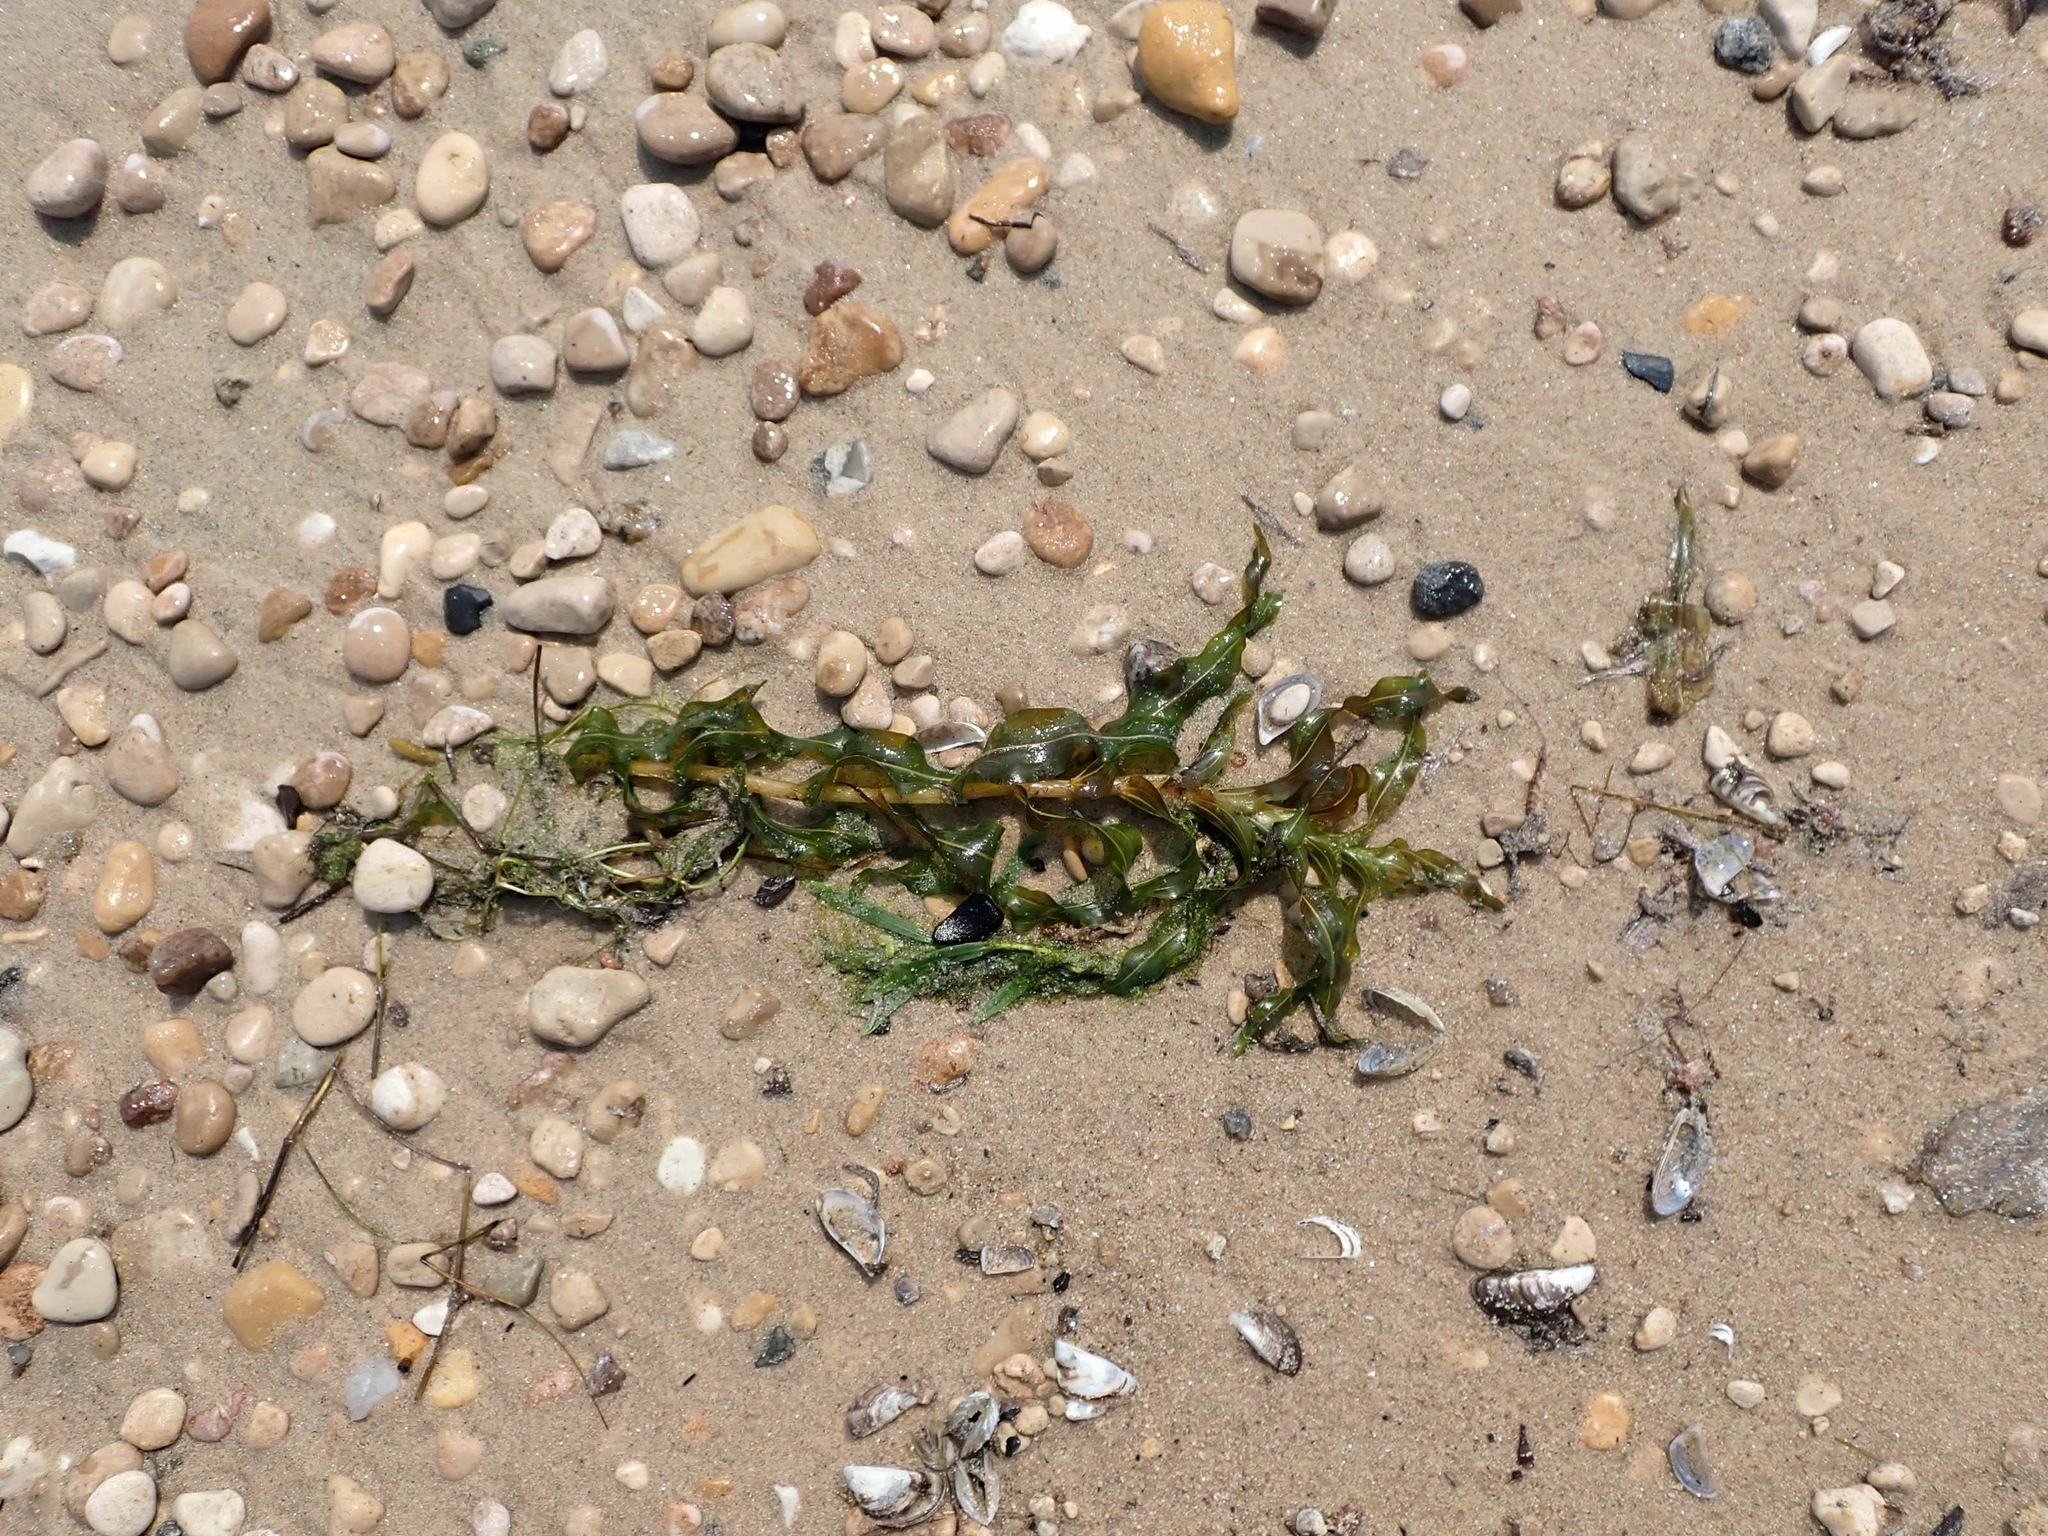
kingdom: Plantae
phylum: Tracheophyta
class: Liliopsida
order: Alismatales
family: Potamogetonaceae
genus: Potamogeton
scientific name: Potamogeton richardsonii
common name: Richardson's pondweed
